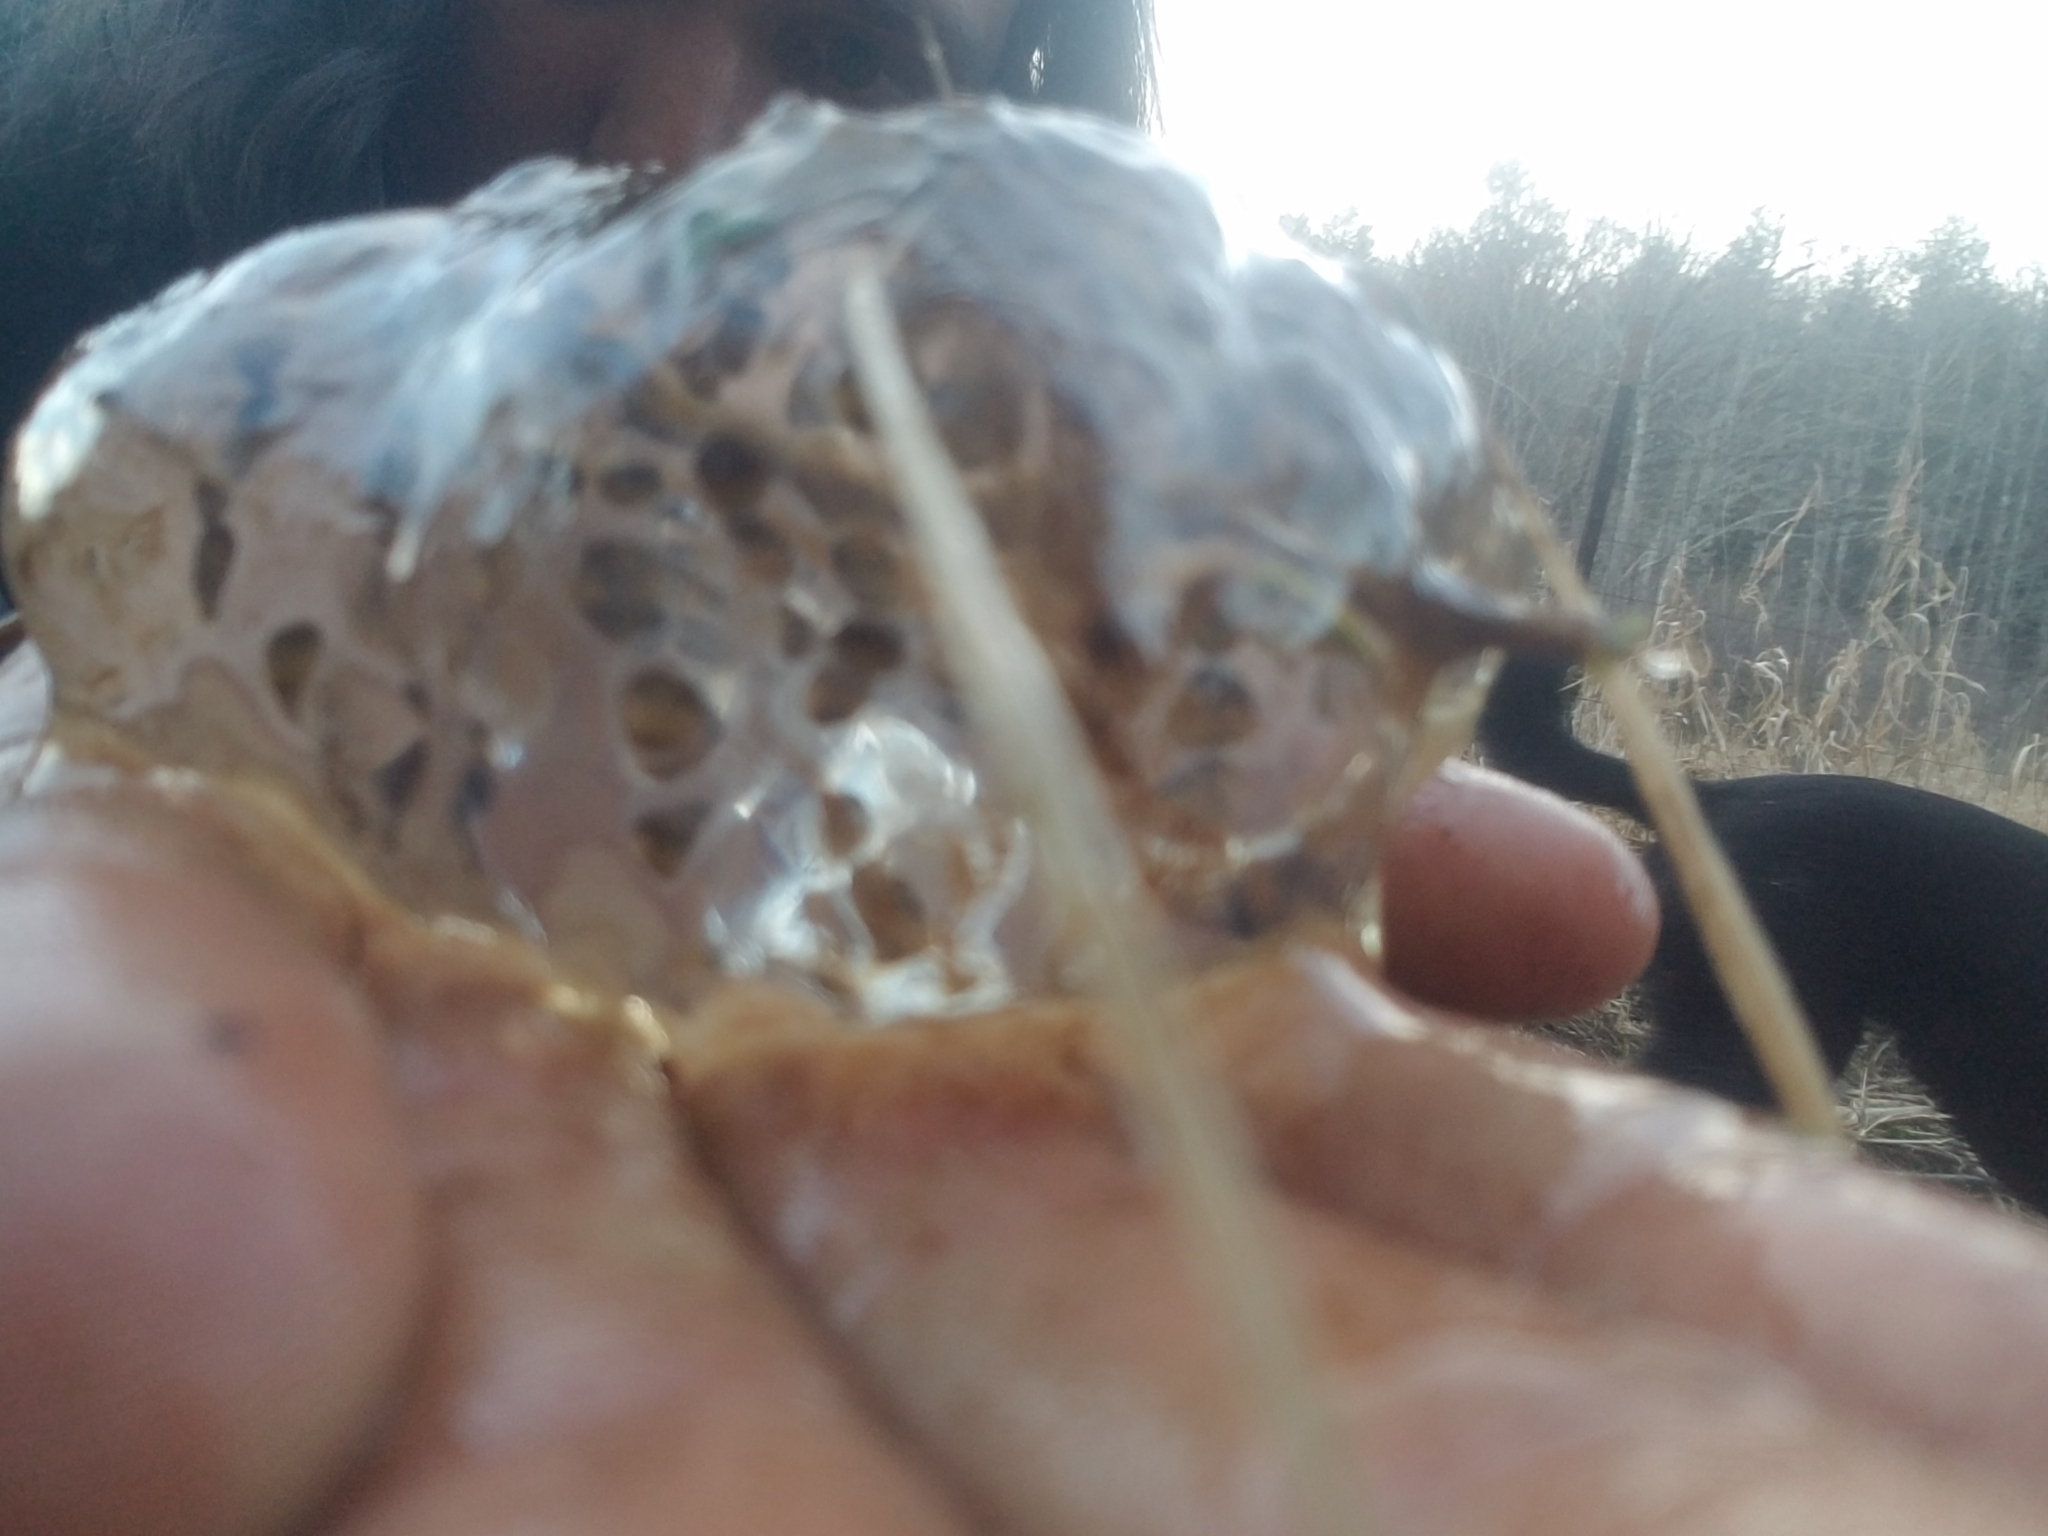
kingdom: Animalia
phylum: Chordata
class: Amphibia
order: Caudata
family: Ambystomatidae
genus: Ambystoma
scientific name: Ambystoma gracile
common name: Northwestern salamander
